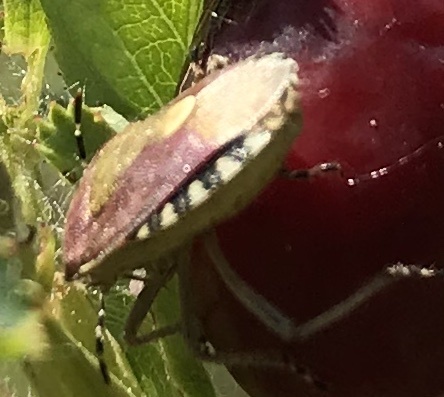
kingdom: Animalia
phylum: Arthropoda
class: Insecta
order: Hemiptera
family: Pentatomidae
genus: Dolycoris
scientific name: Dolycoris baccarum
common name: Sloe bug
